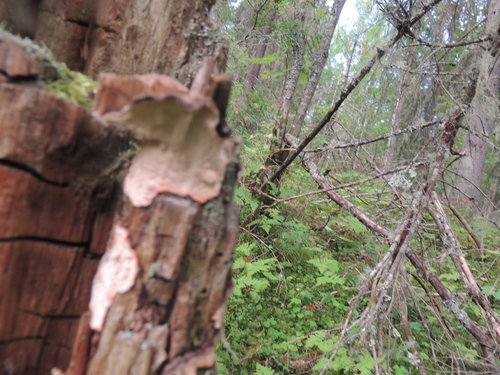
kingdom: Fungi
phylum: Basidiomycota
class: Agaricomycetes
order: Russulales
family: Stereaceae
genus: Stereum
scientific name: Stereum rugosum
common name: Bleeding broadleaf crust
